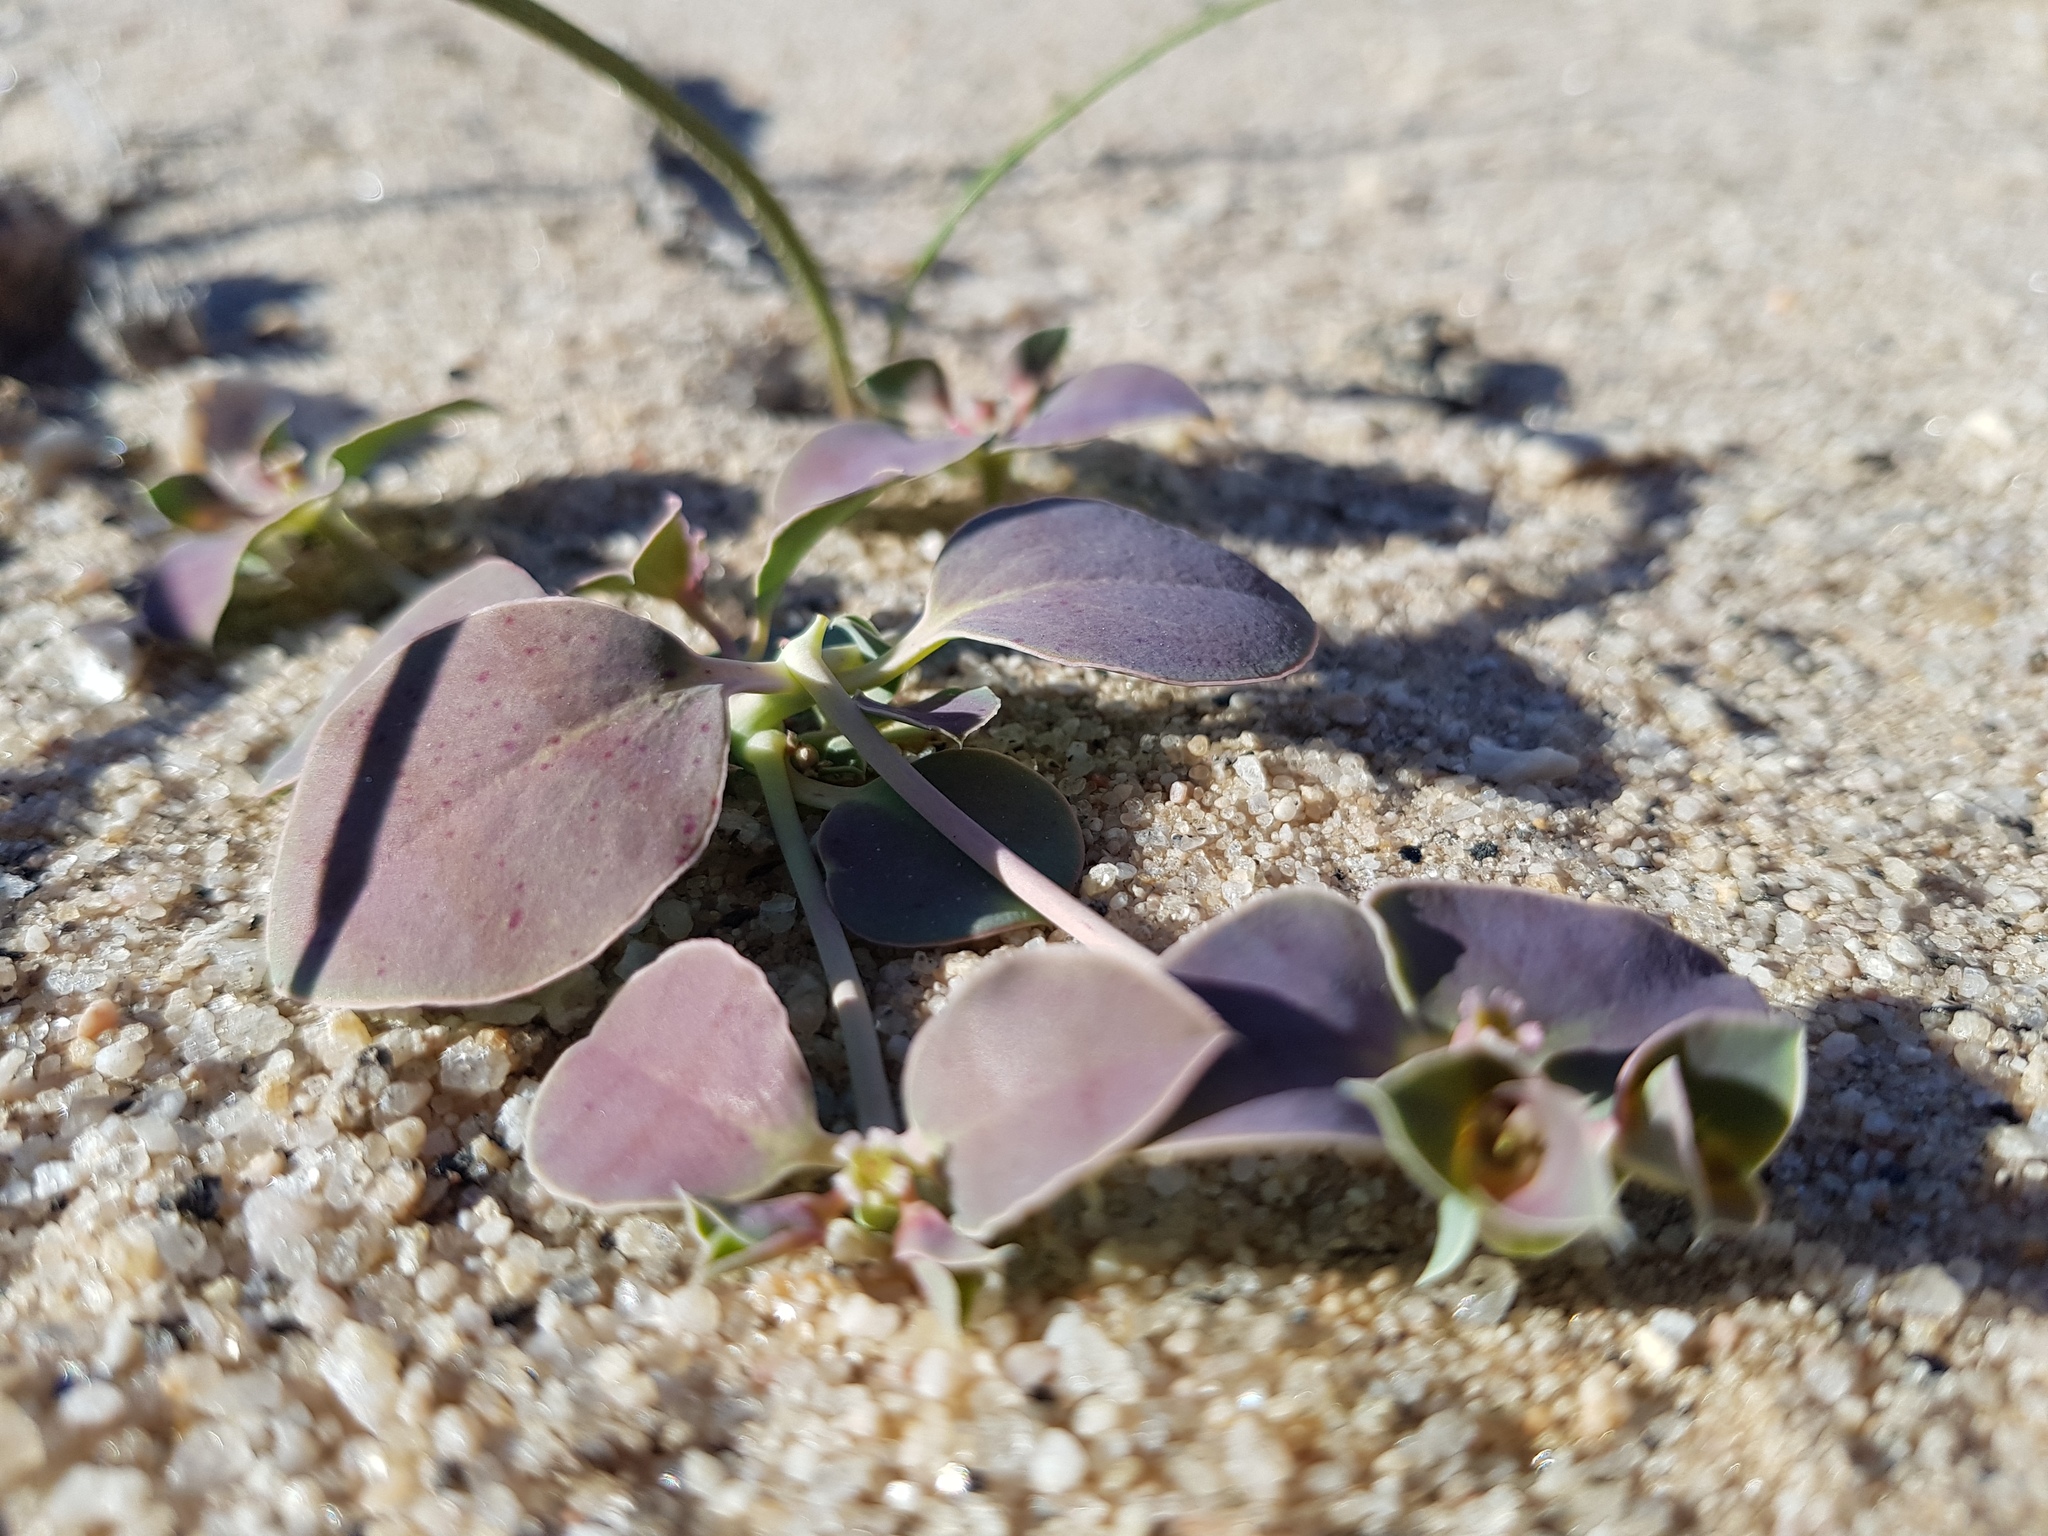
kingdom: Plantae
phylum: Tracheophyta
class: Magnoliopsida
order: Malpighiales
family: Euphorbiaceae
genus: Euphorbia
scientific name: Euphorbia phylloclada
